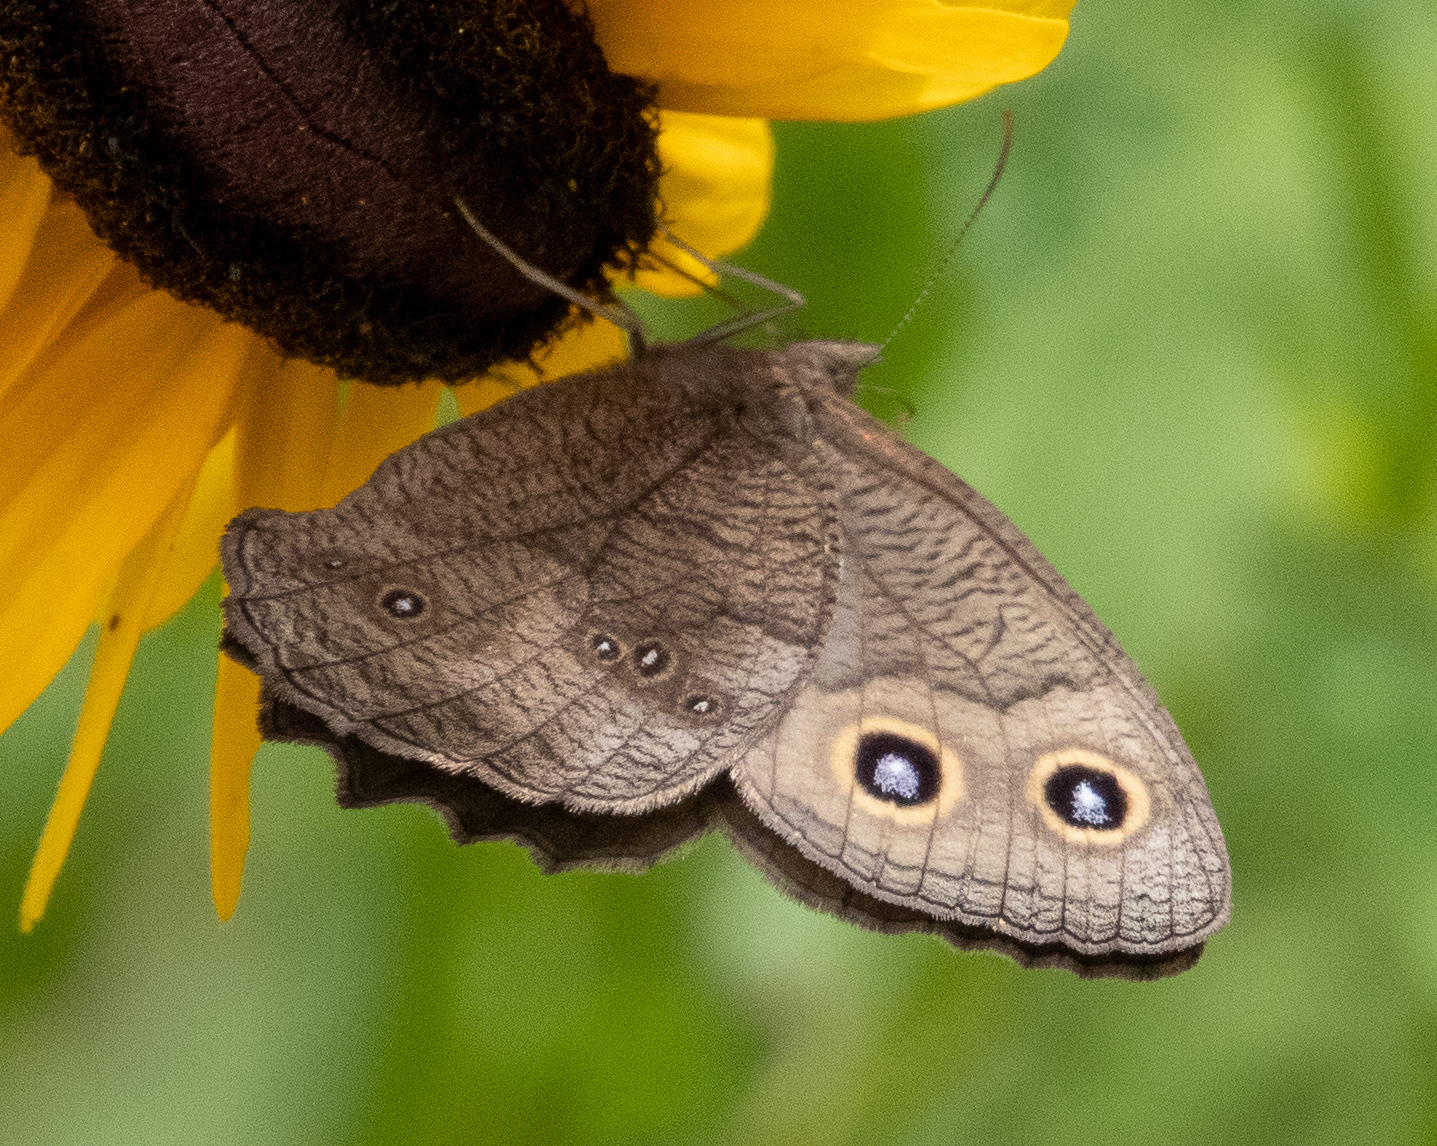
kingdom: Animalia
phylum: Arthropoda
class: Insecta
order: Lepidoptera
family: Nymphalidae
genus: Cercyonis
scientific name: Cercyonis pegala
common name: Common wood-nymph
